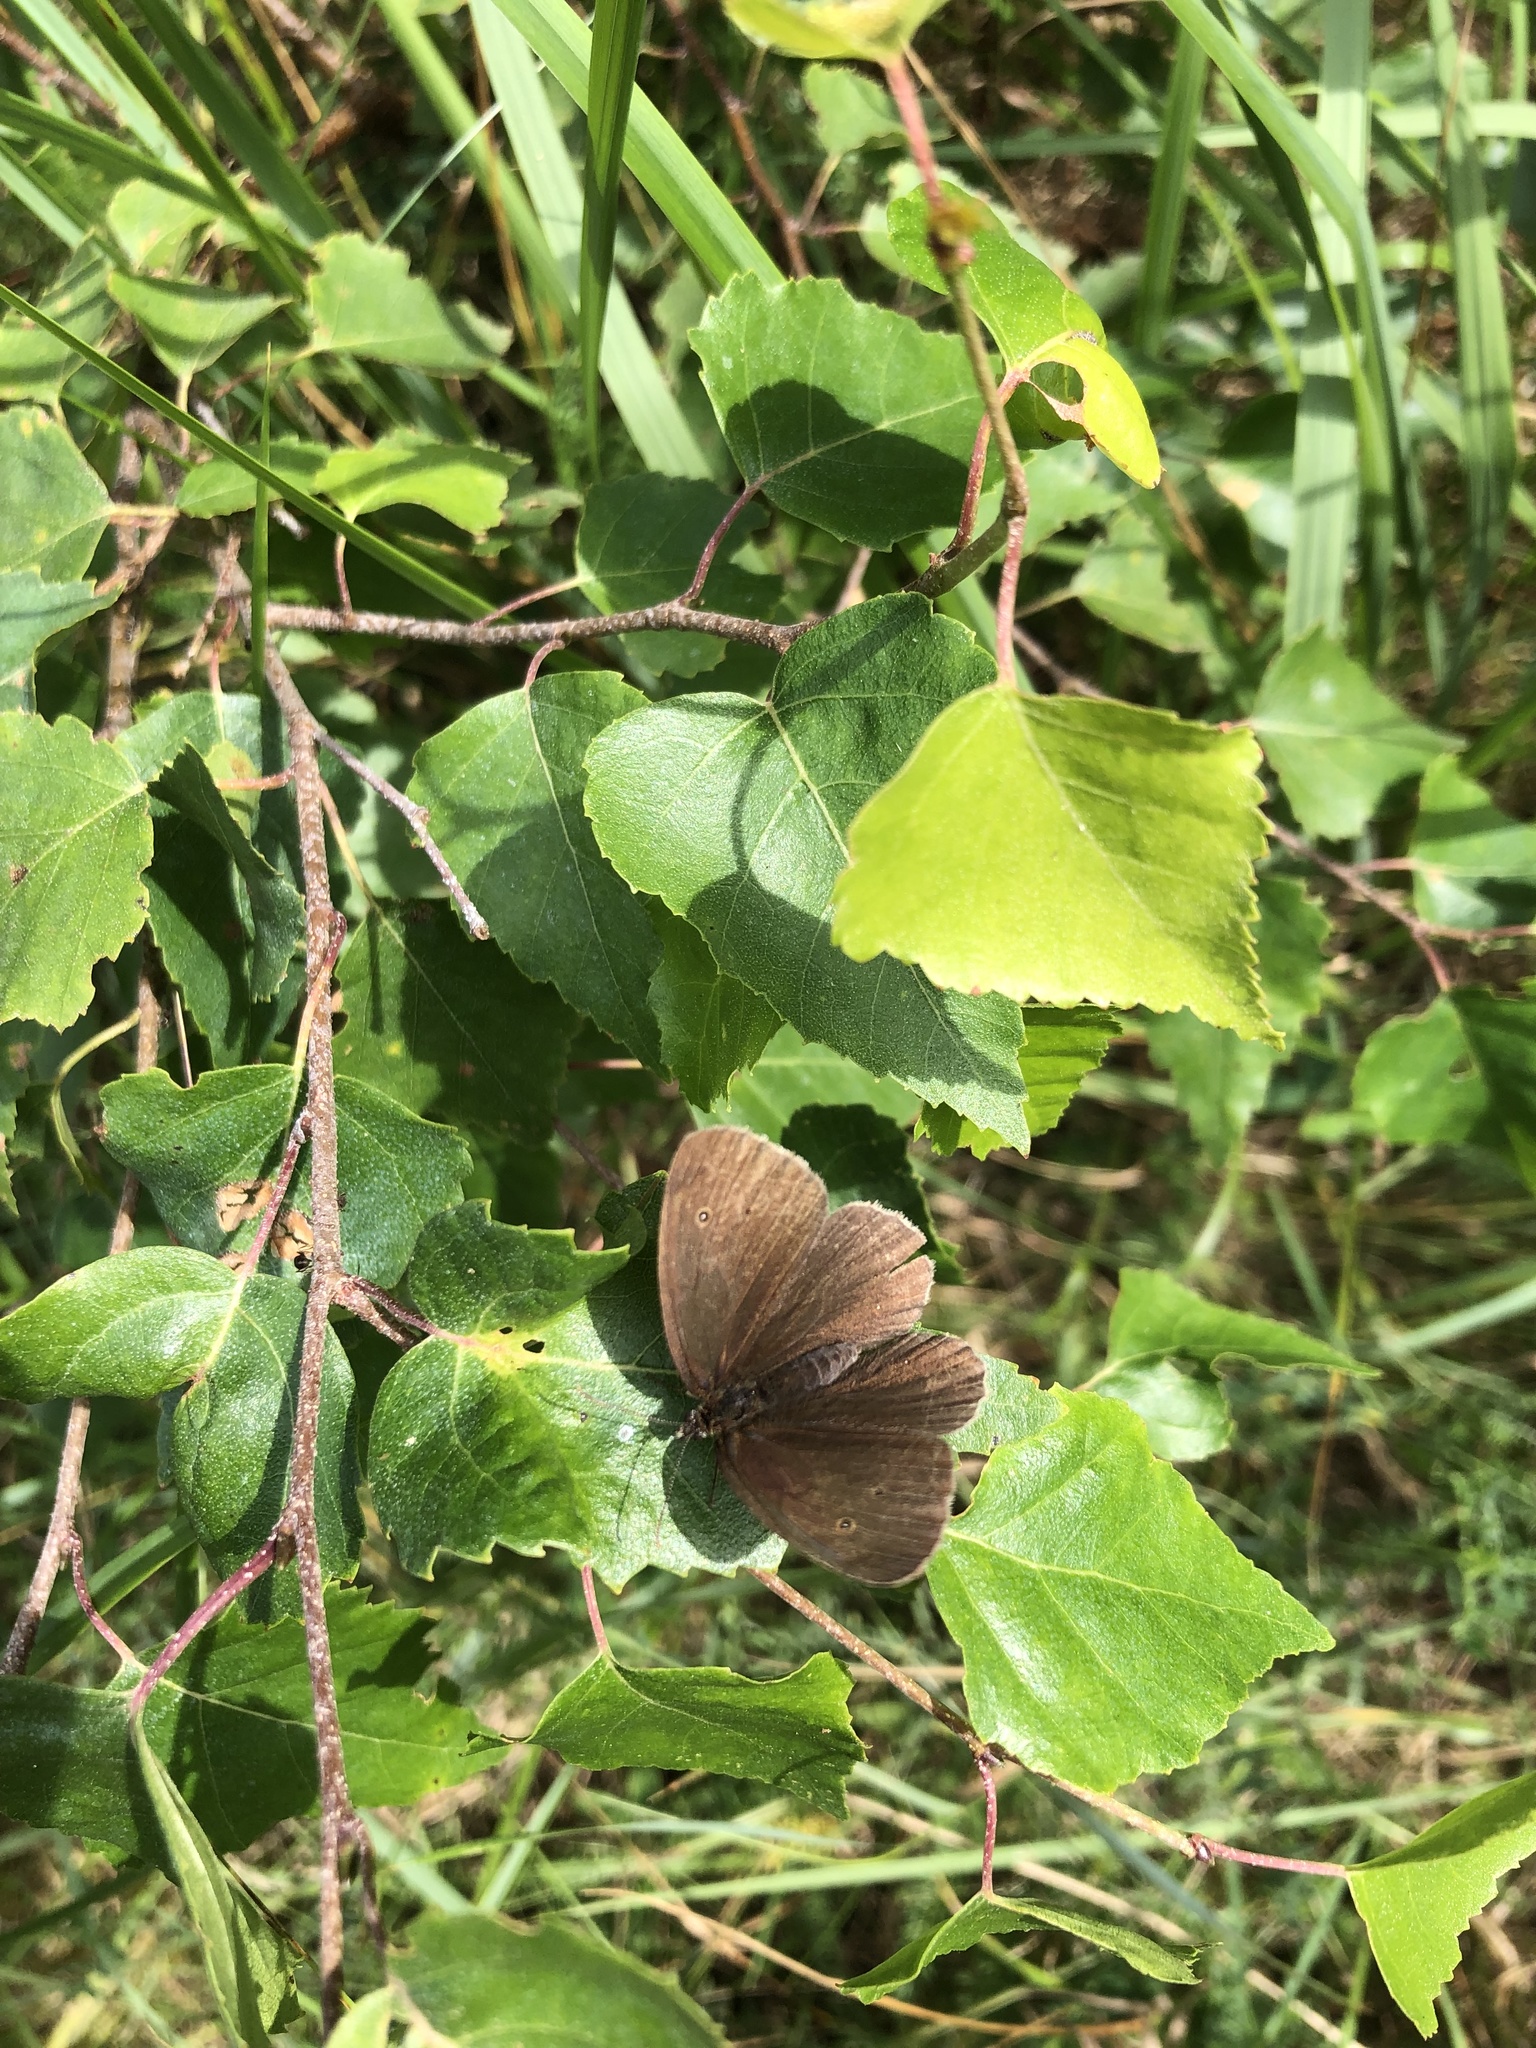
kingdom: Animalia
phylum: Arthropoda
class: Insecta
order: Lepidoptera
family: Nymphalidae
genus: Aphantopus
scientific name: Aphantopus hyperantus
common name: Ringlet
